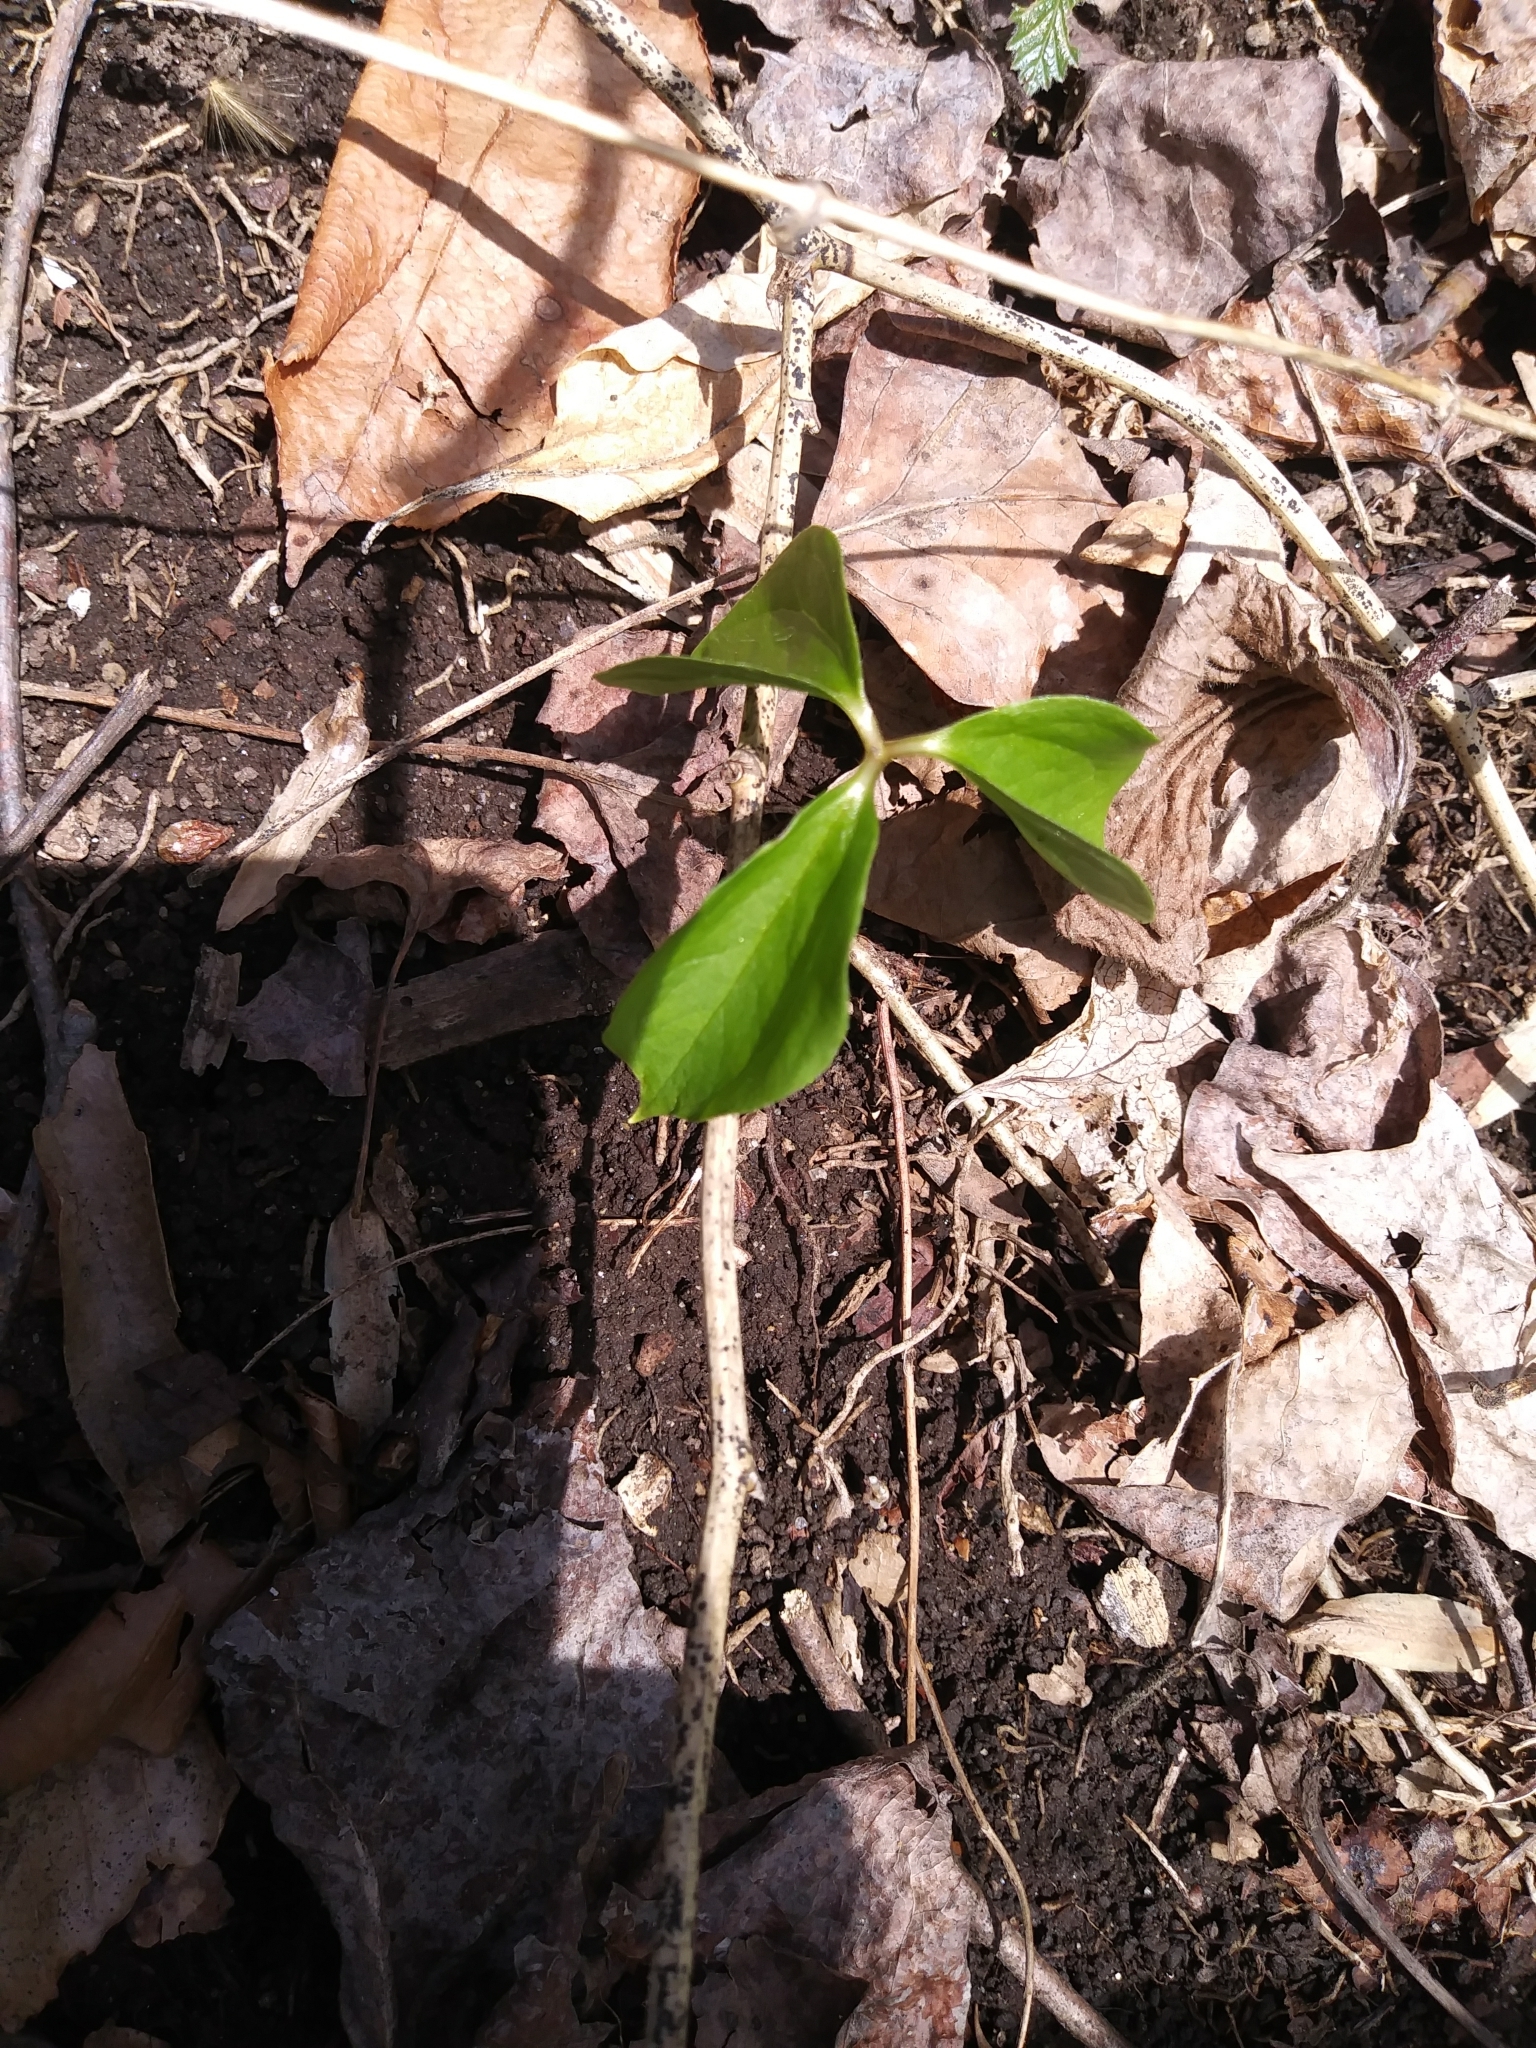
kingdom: Plantae
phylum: Tracheophyta
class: Liliopsida
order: Alismatales
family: Araceae
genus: Arisaema
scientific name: Arisaema triphyllum
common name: Jack-in-the-pulpit
